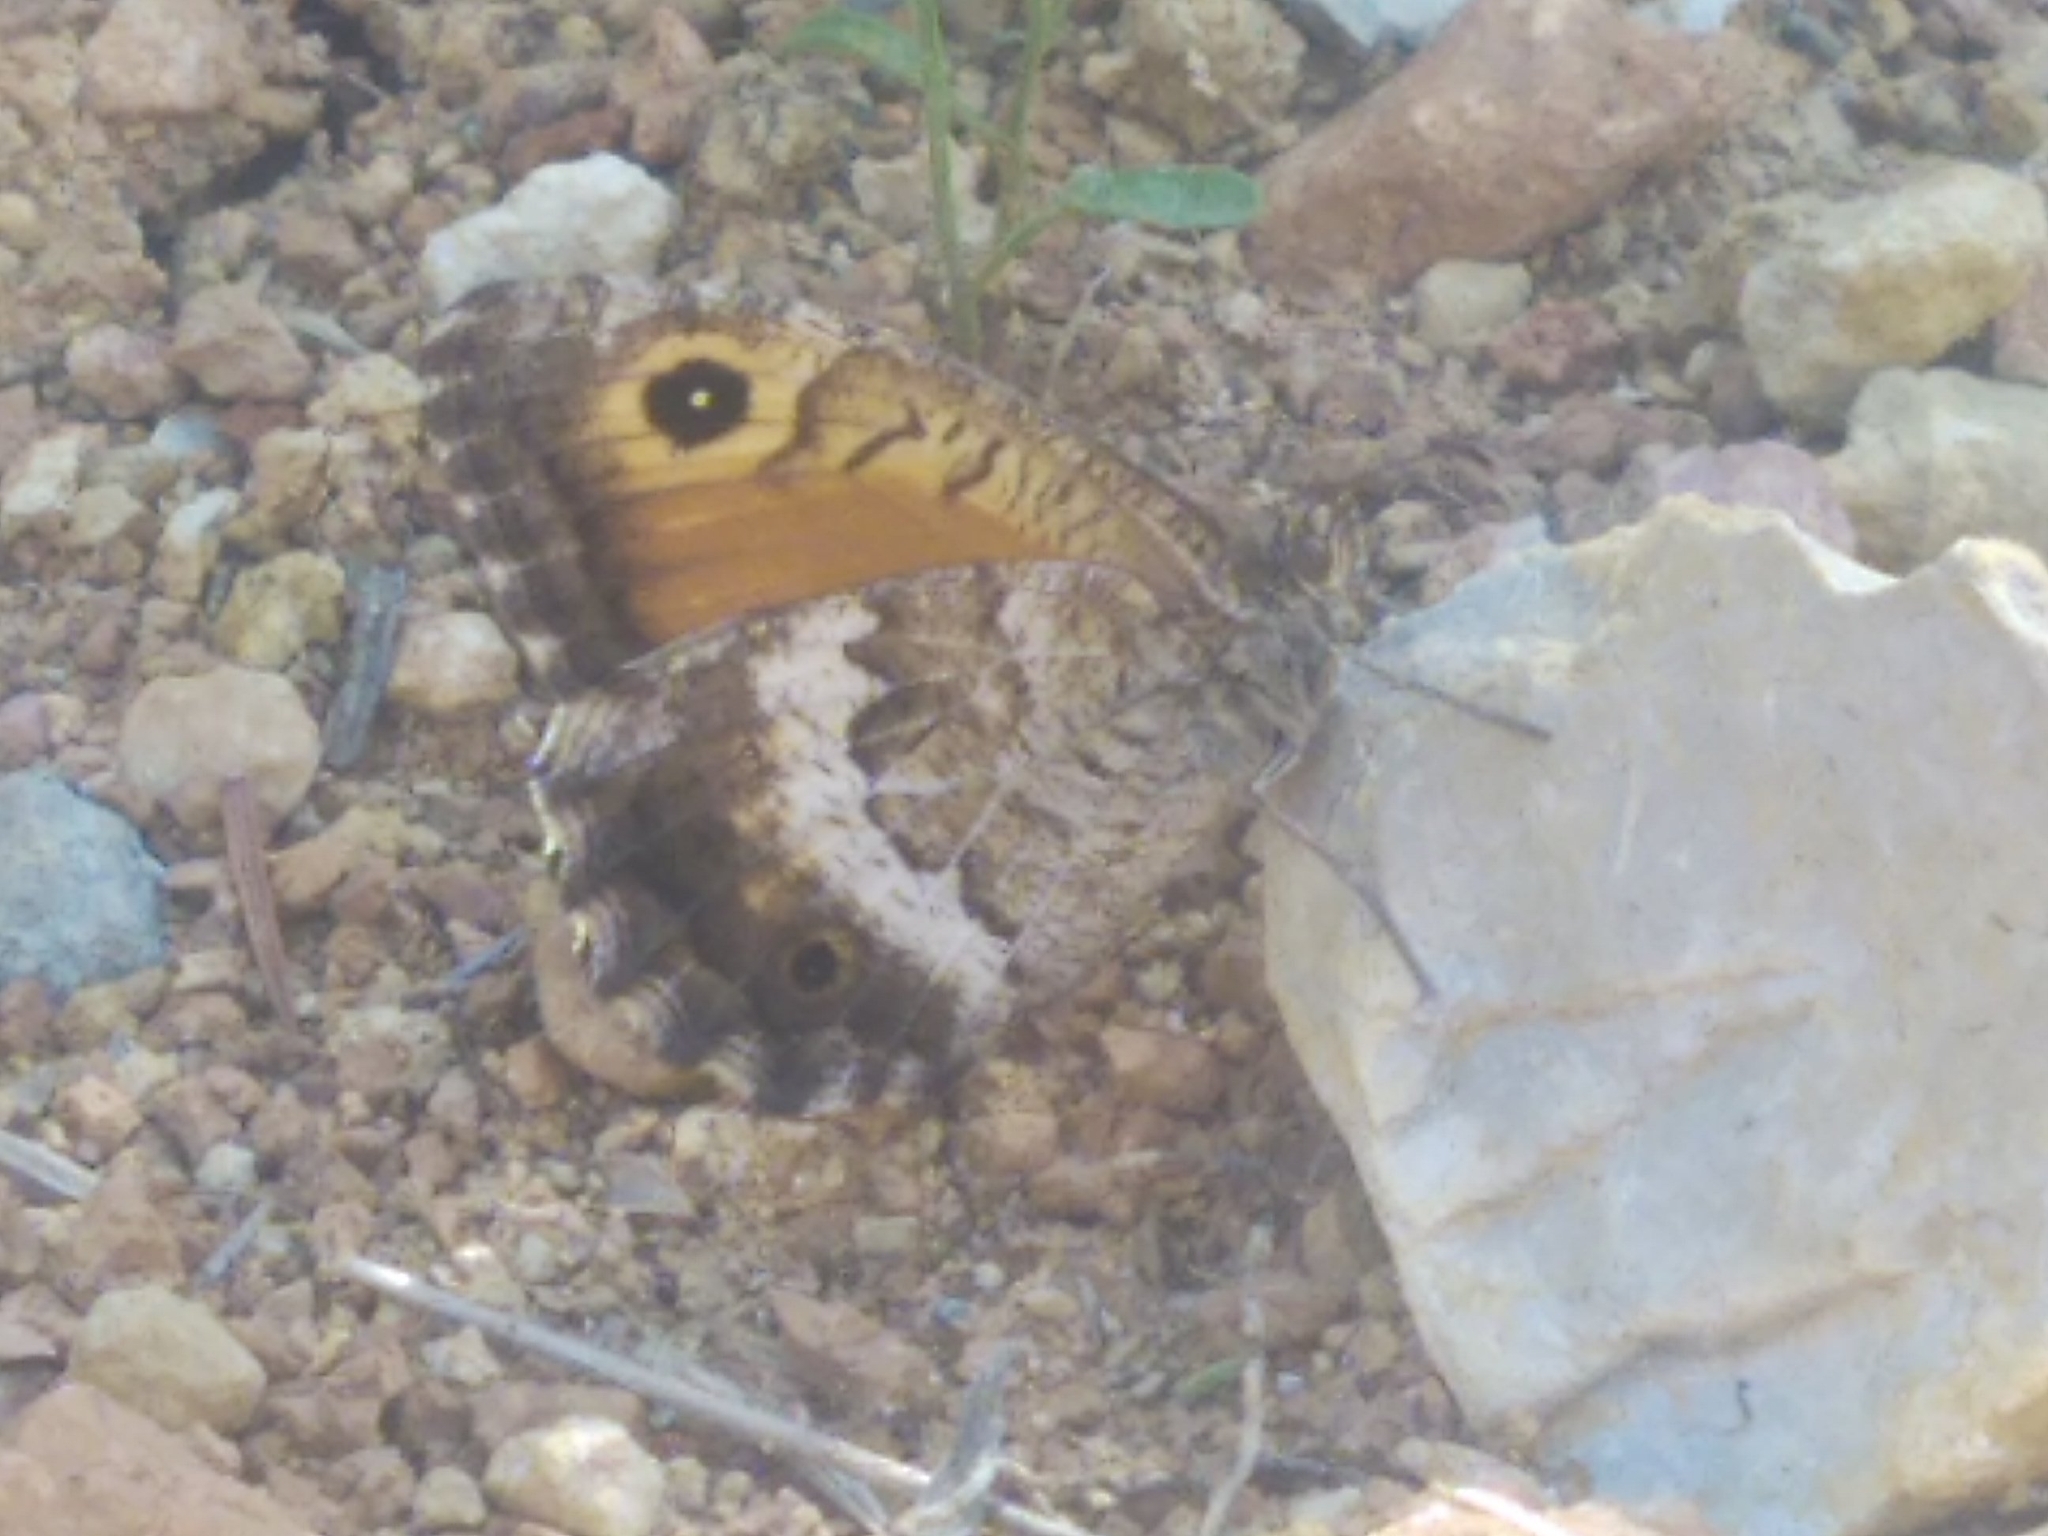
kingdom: Animalia
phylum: Arthropoda
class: Insecta
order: Lepidoptera
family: Nymphalidae
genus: Arethusana
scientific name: Arethusana arethusa
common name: False grayling
